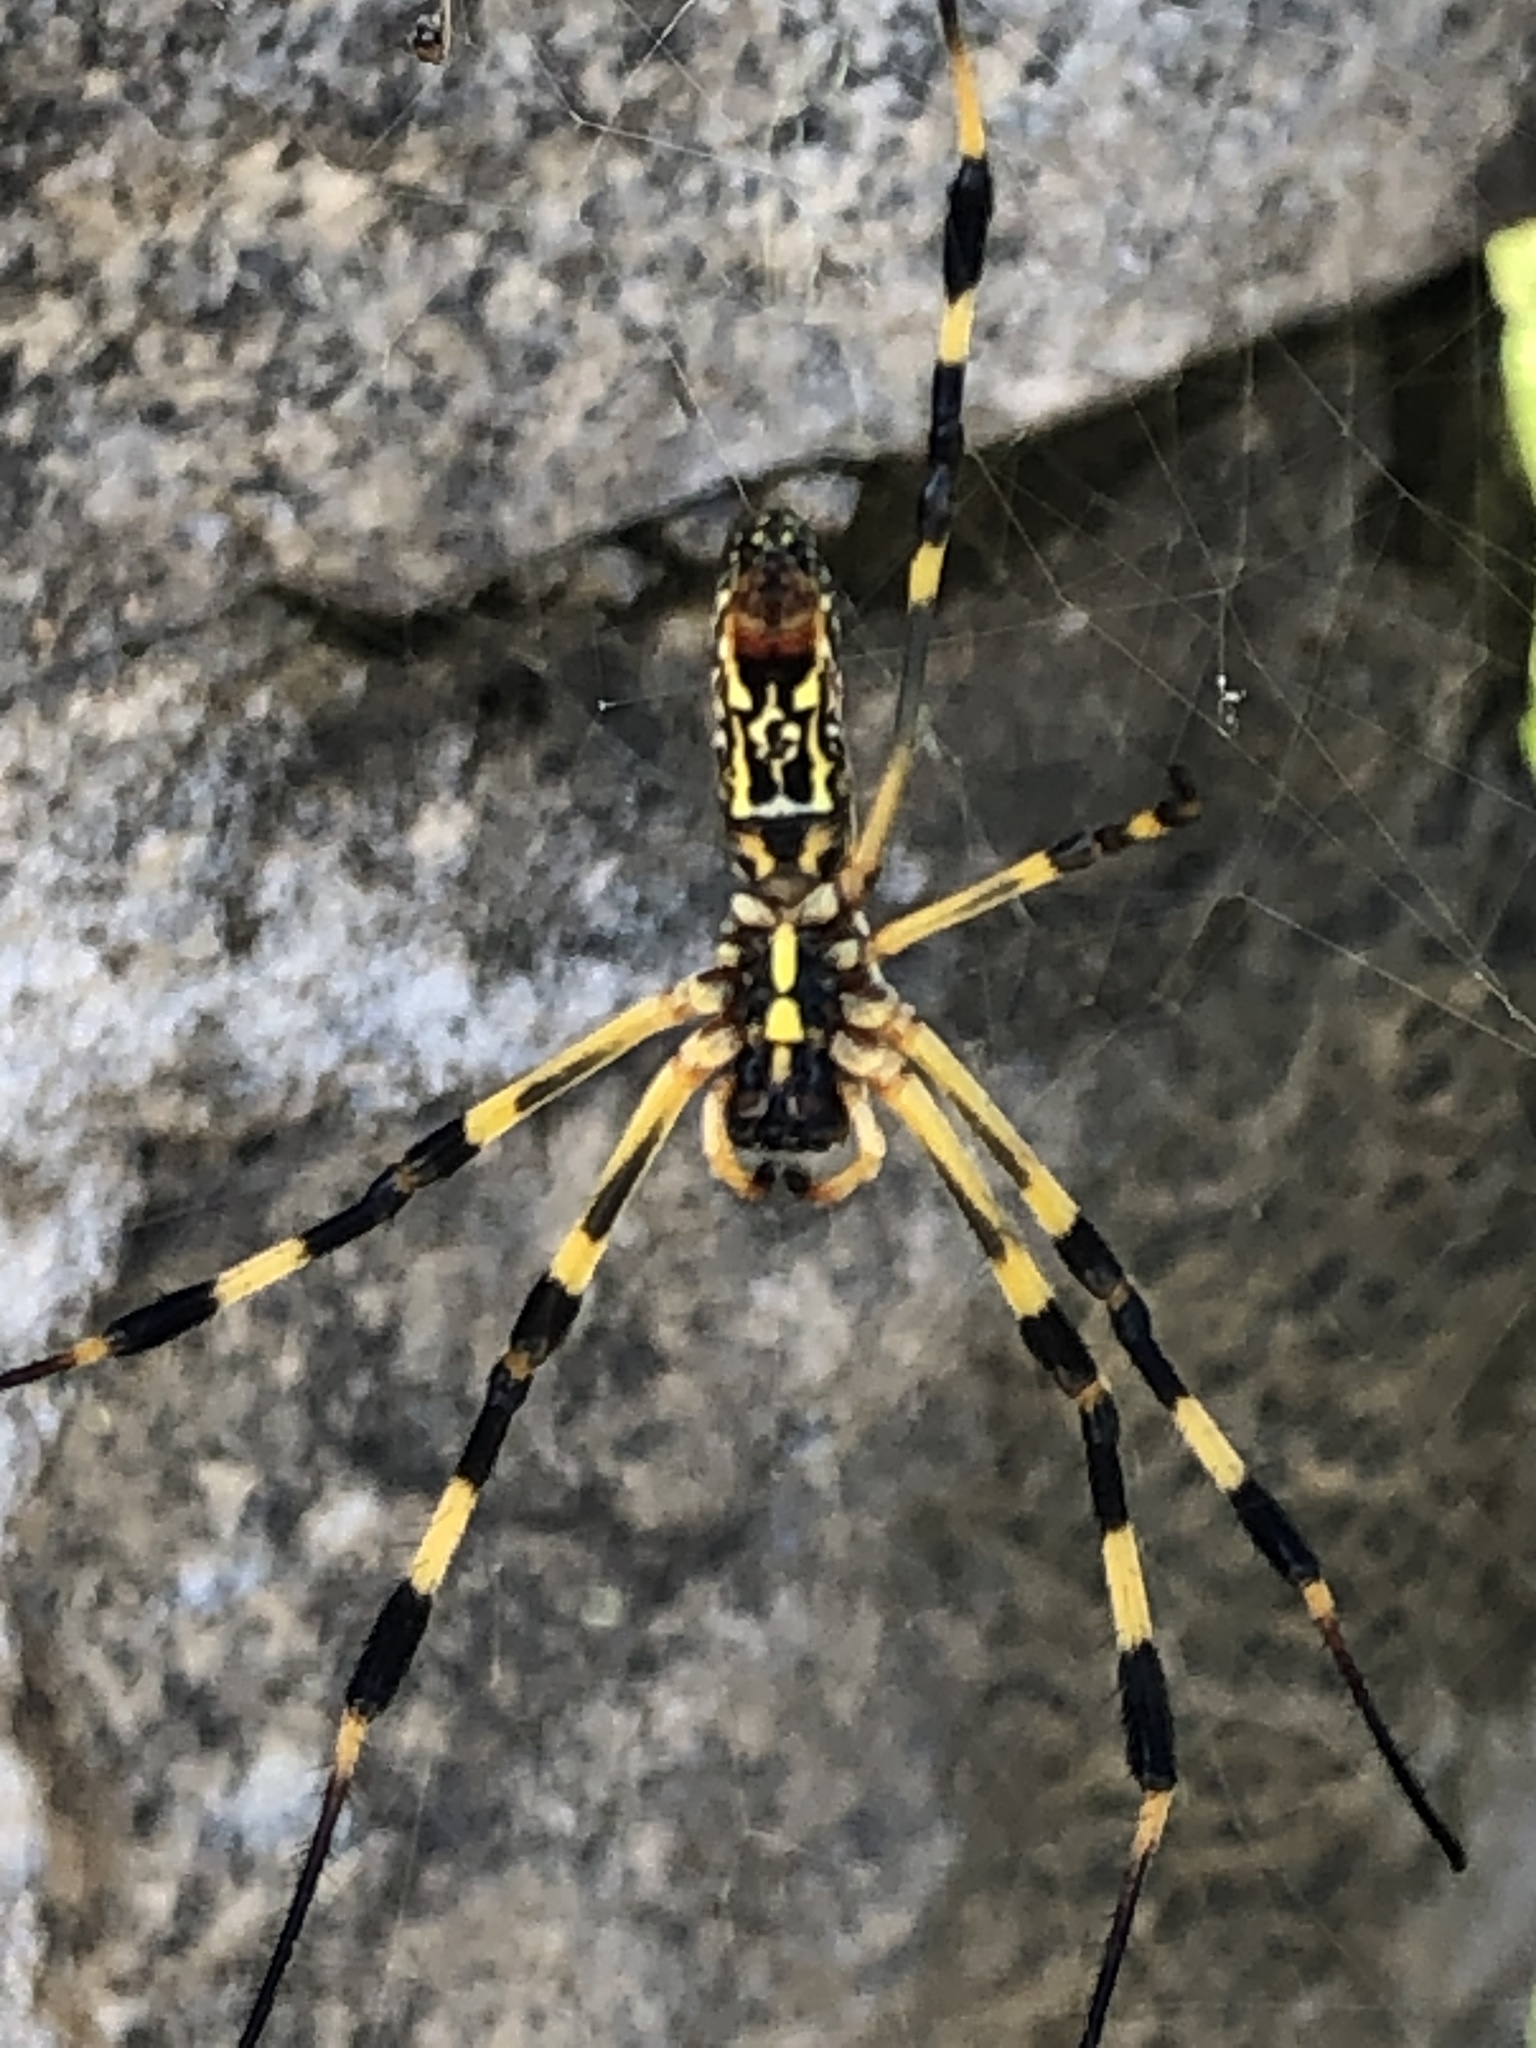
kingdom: Animalia
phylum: Arthropoda
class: Arachnida
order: Araneae
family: Araneidae
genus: Trichonephila
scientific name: Trichonephila clavata
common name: Jorō spider
